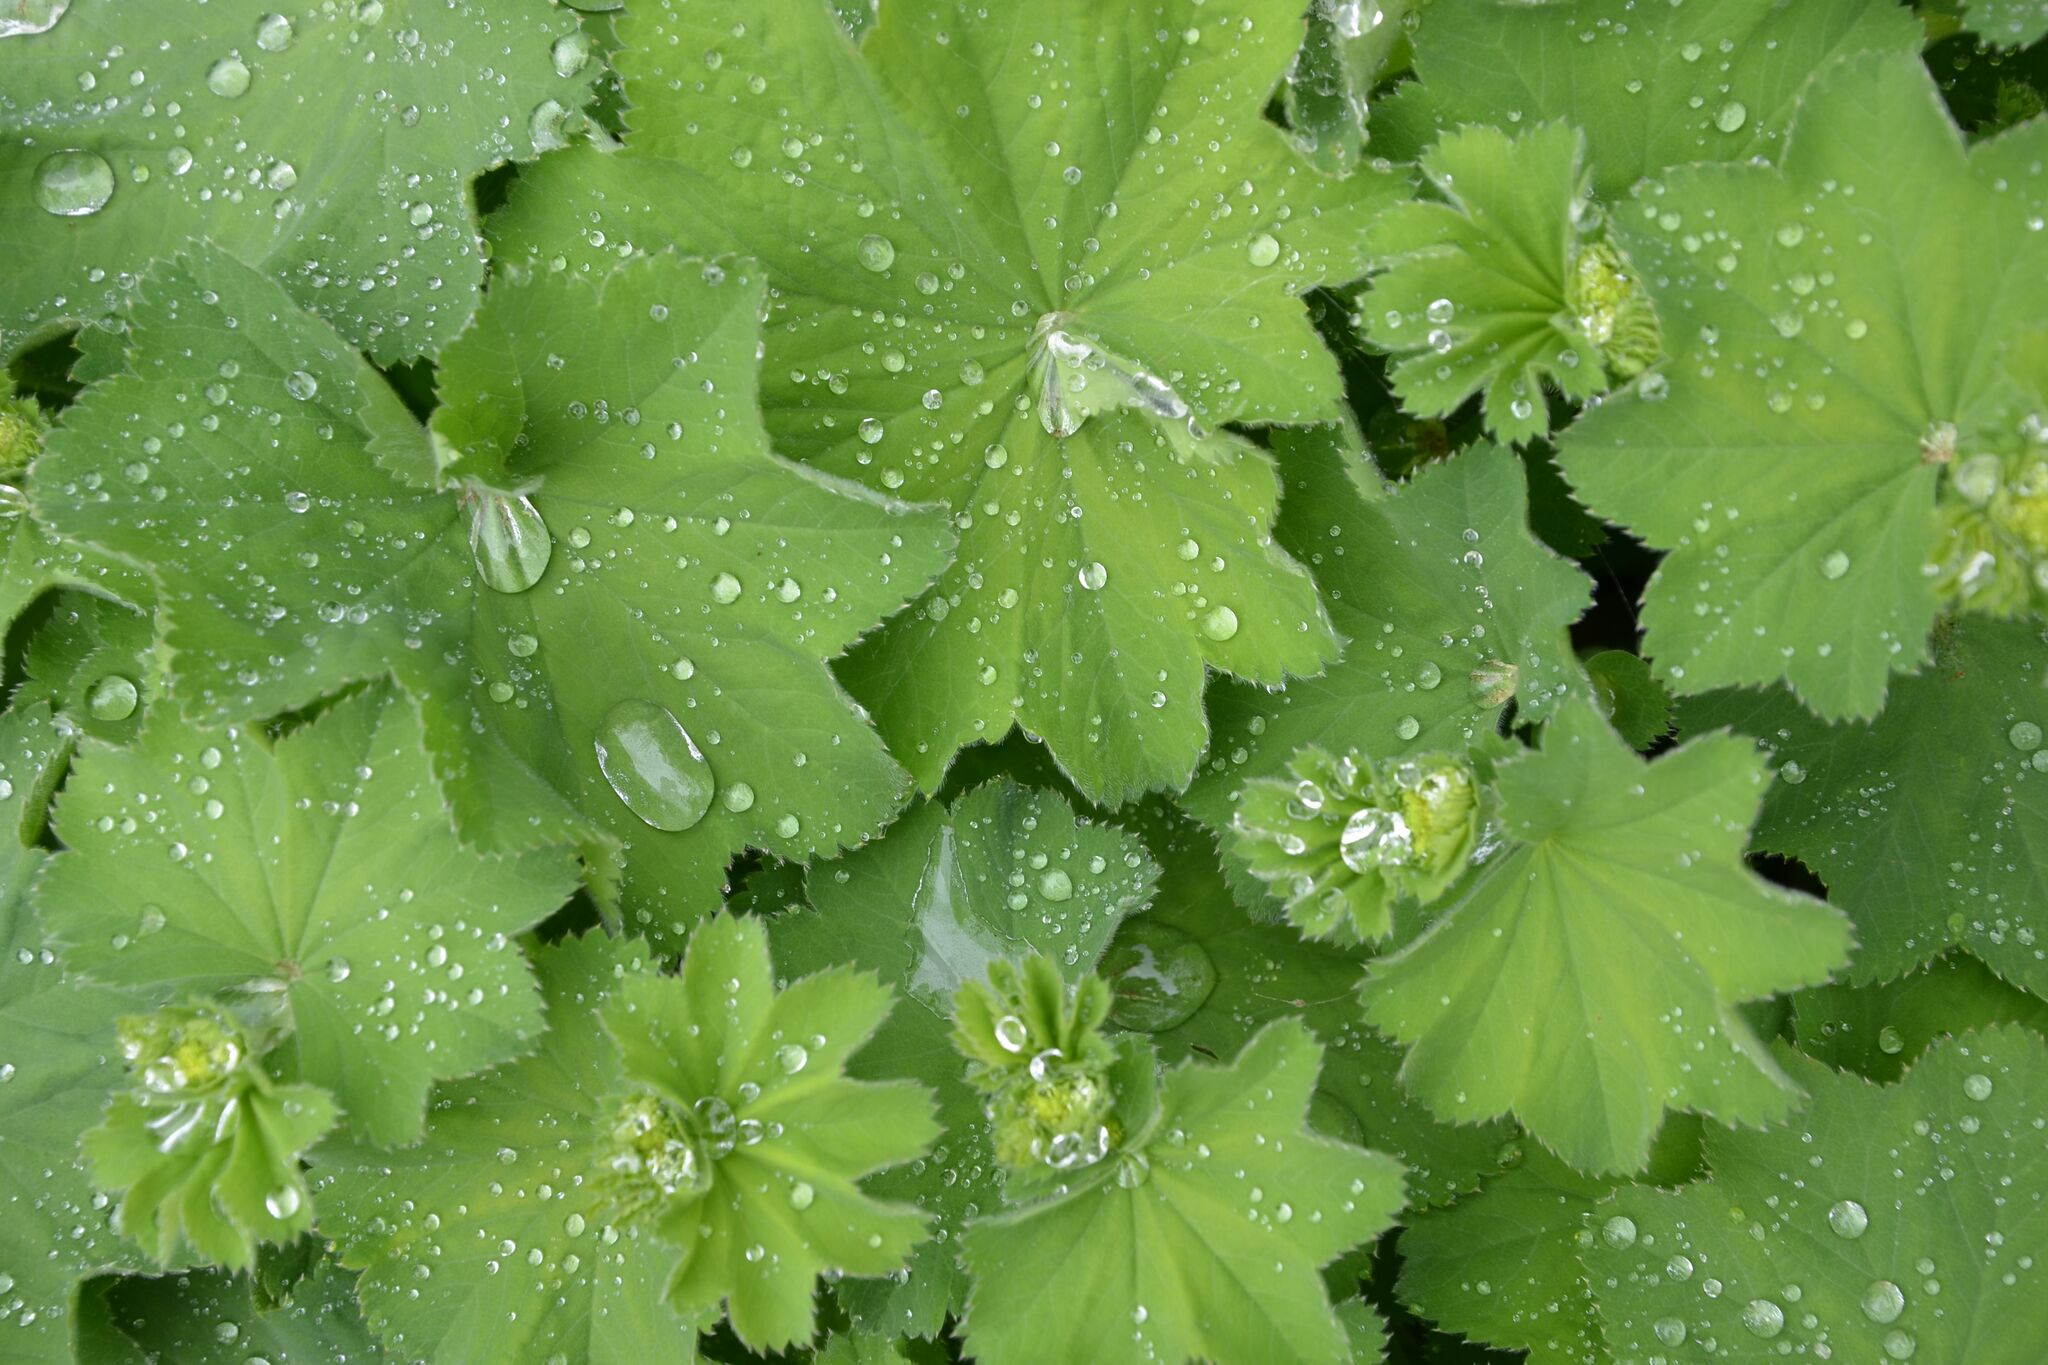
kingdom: Plantae
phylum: Tracheophyta
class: Magnoliopsida
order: Rosales
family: Rosaceae
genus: Alchemilla
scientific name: Alchemilla mollis
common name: Lady's-mantle
